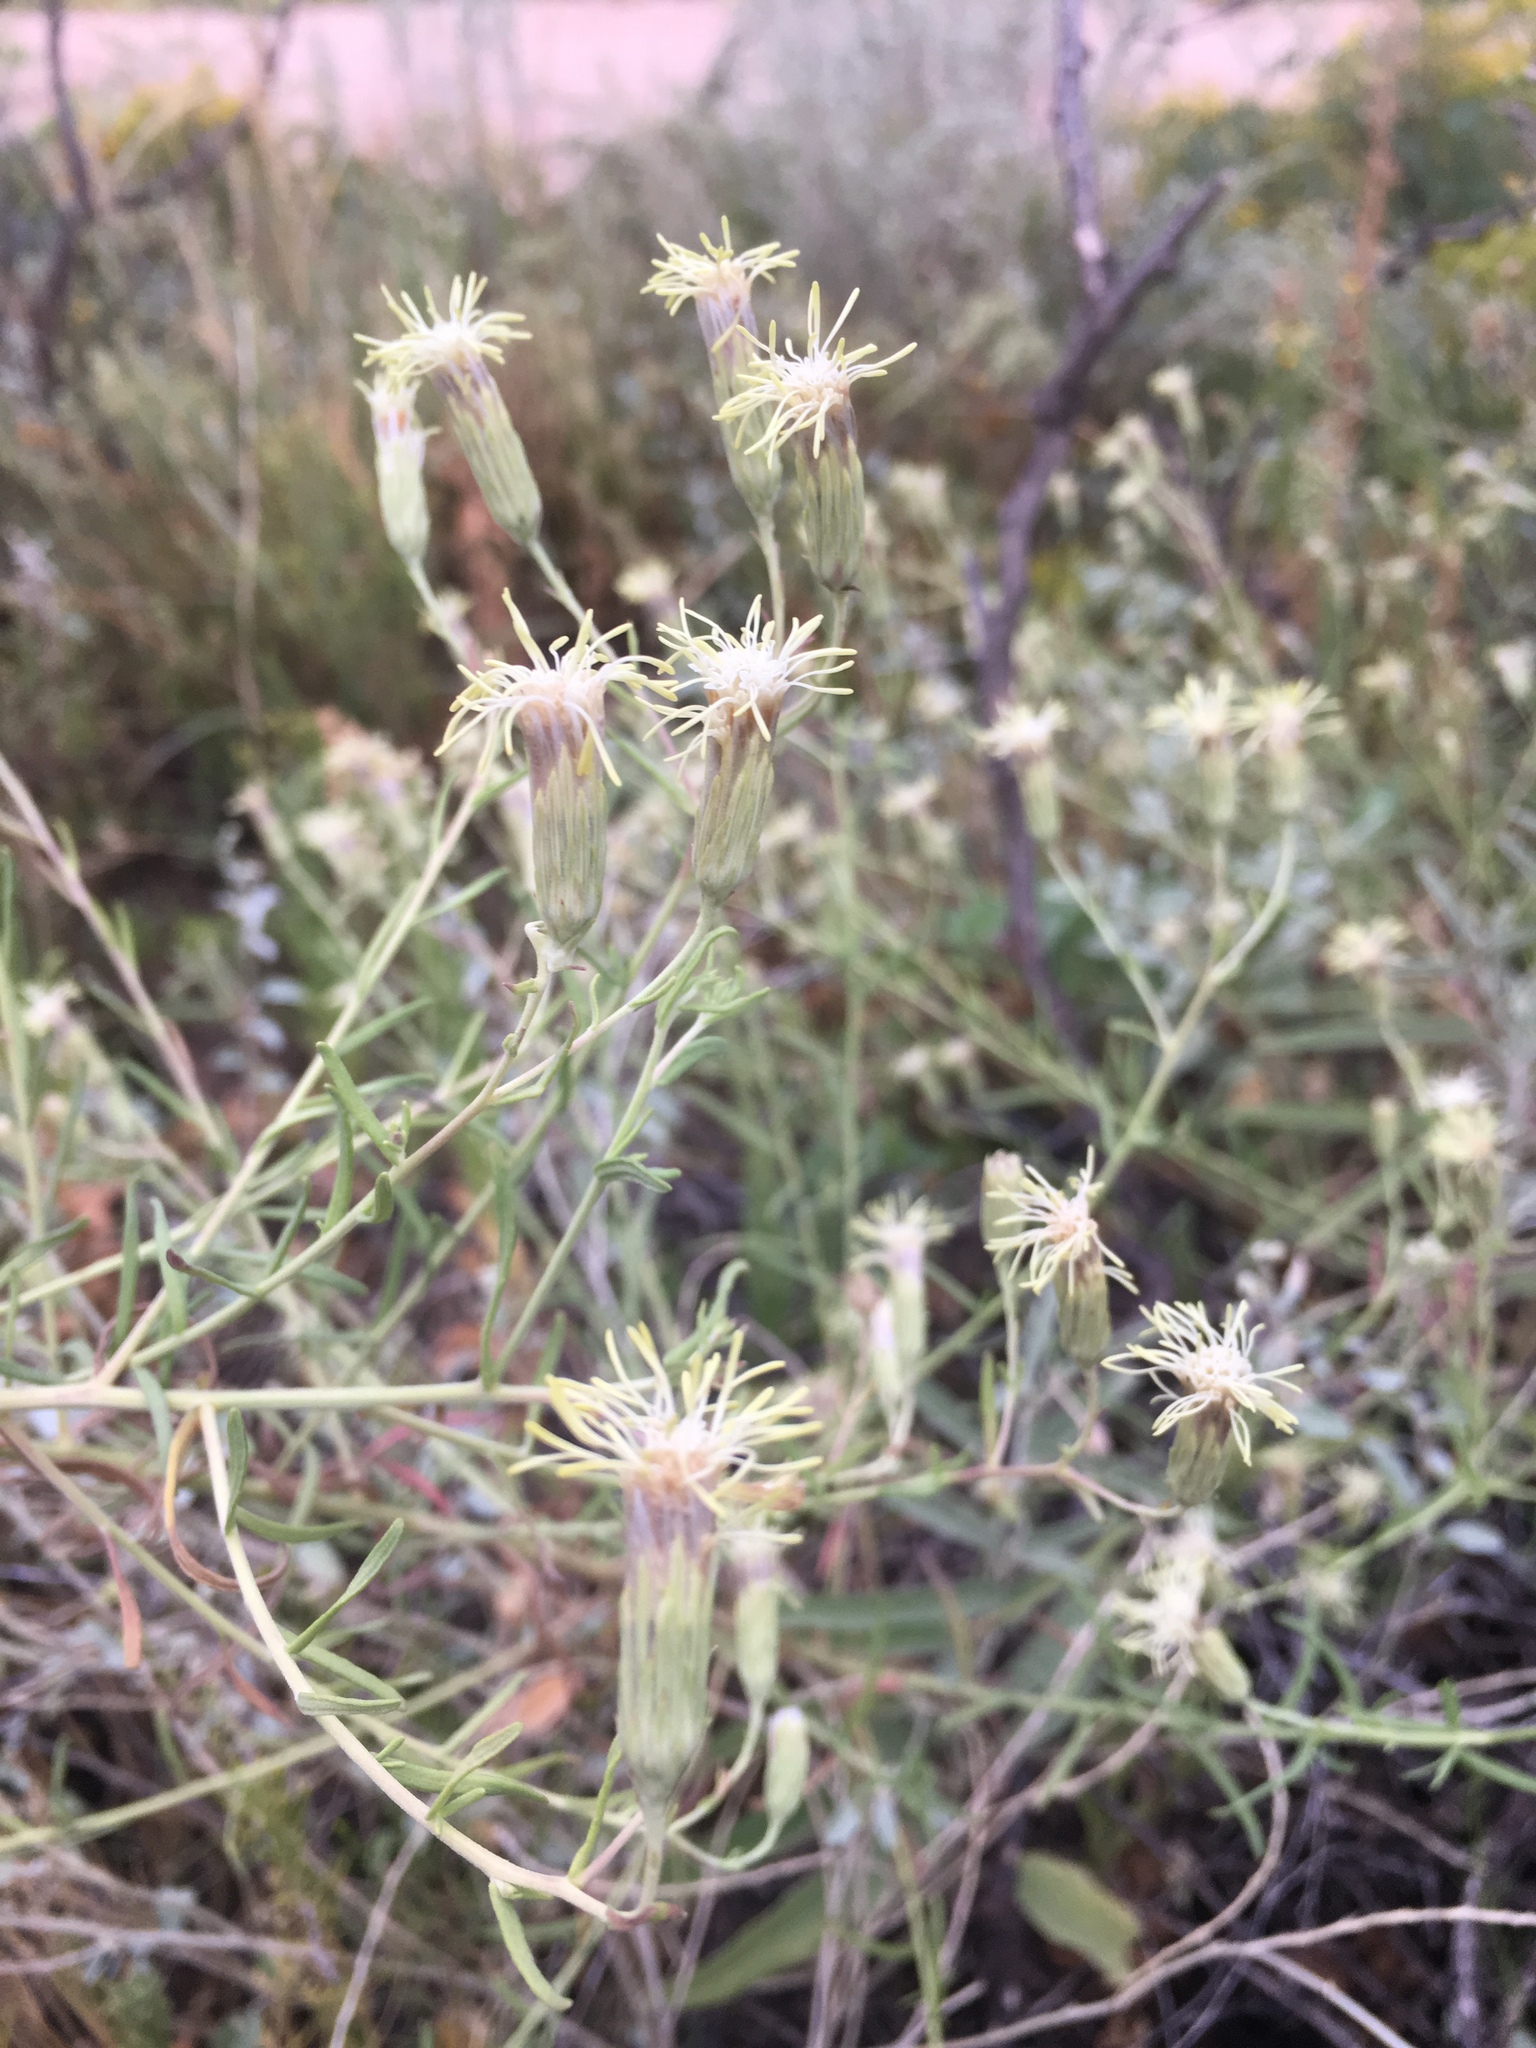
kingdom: Plantae
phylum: Tracheophyta
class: Magnoliopsida
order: Asterales
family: Asteraceae
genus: Brickellia
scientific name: Brickellia eupatorioides
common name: False boneset
